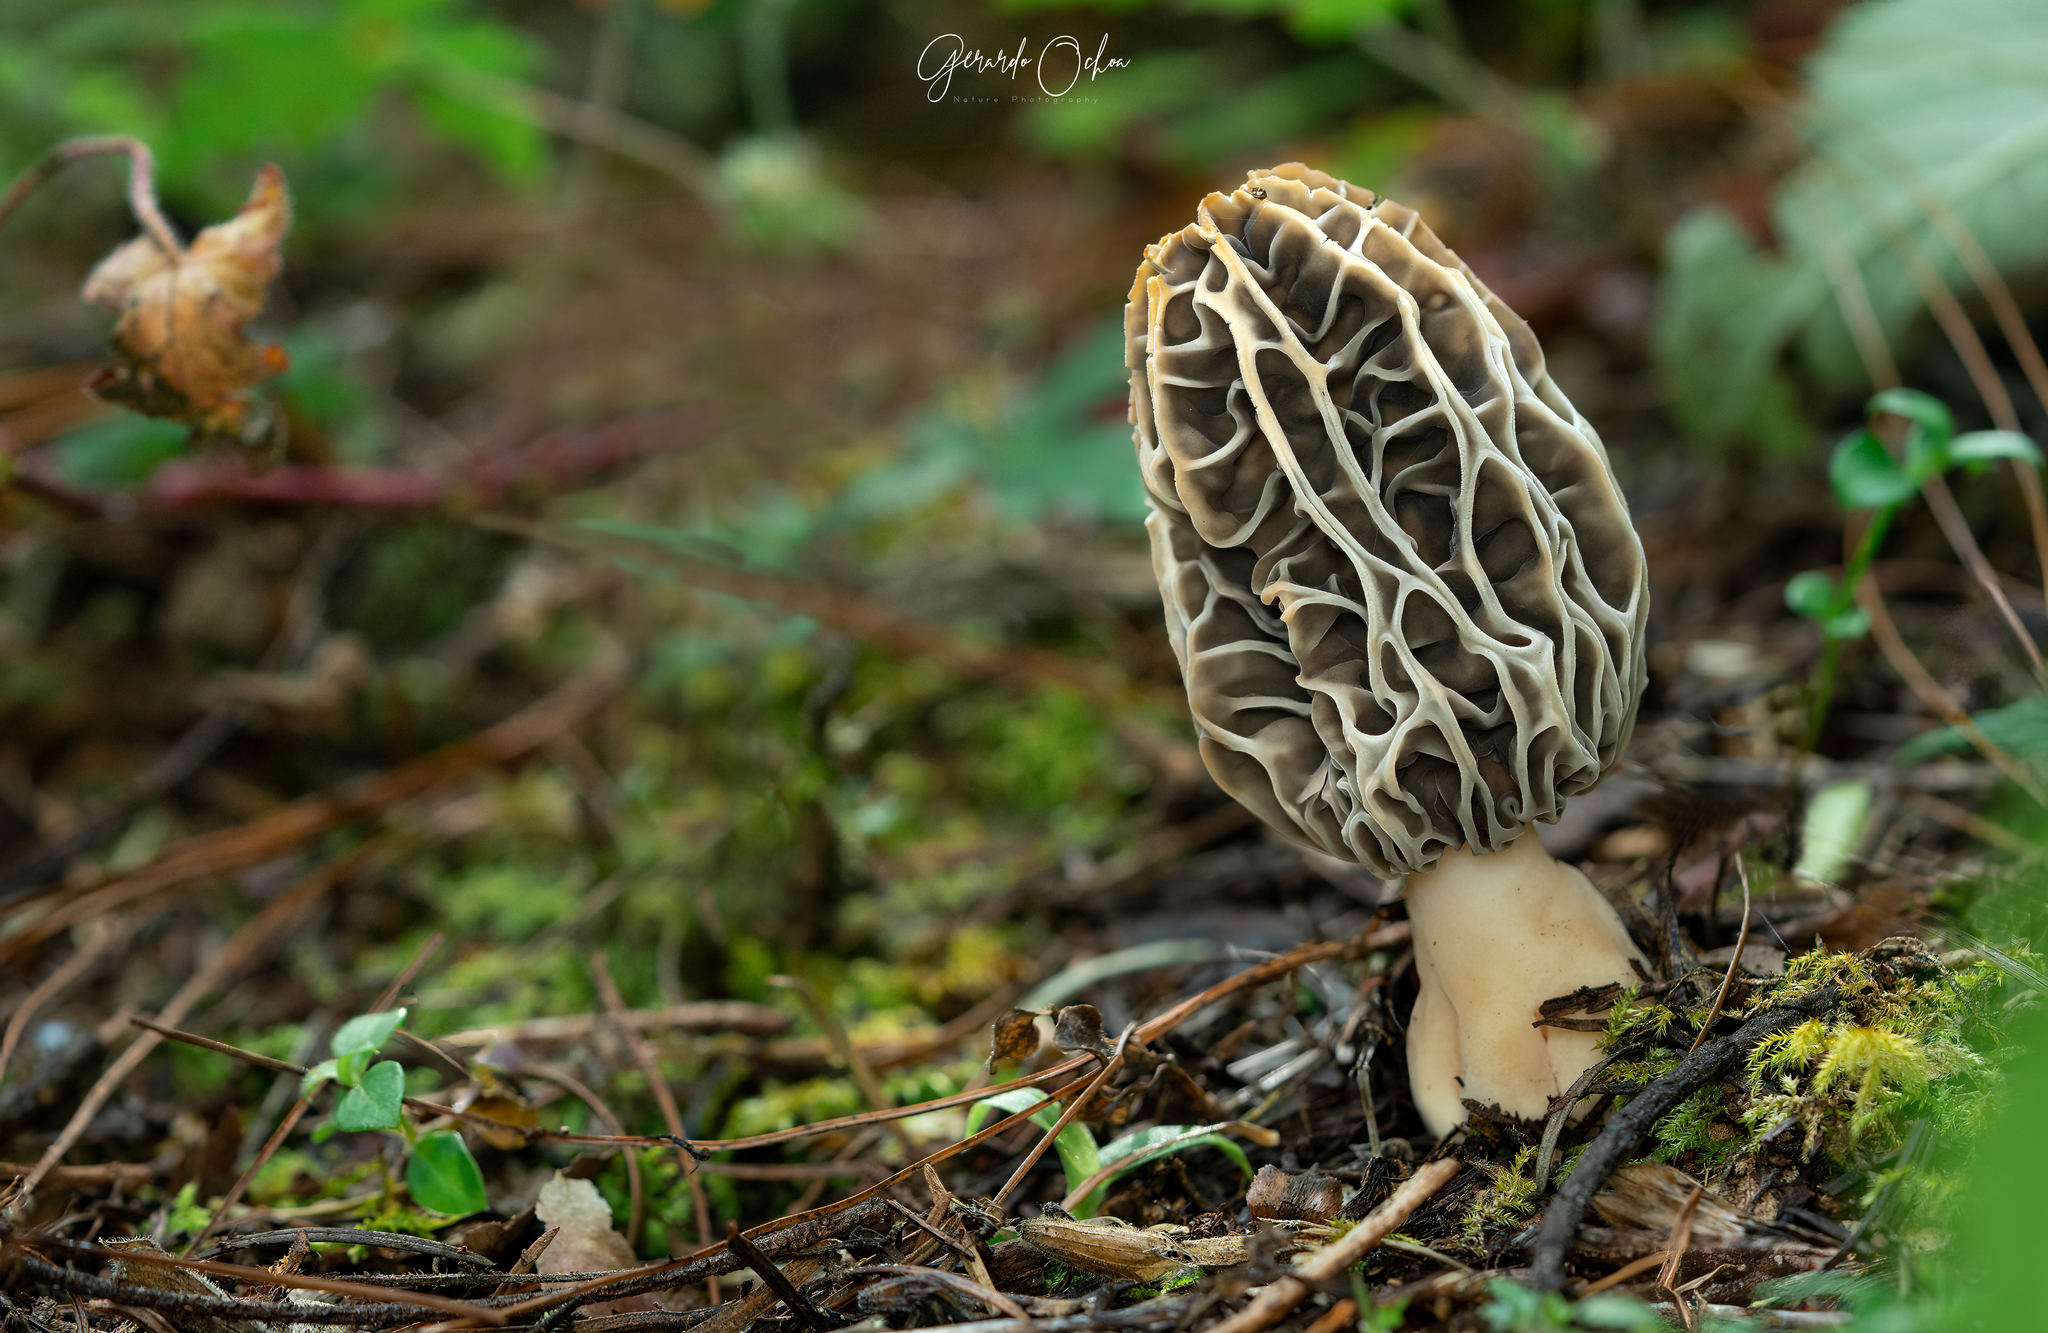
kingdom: Fungi
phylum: Ascomycota
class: Pezizomycetes
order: Pezizales
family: Morchellaceae
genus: Morchella
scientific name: Morchella tridentina
